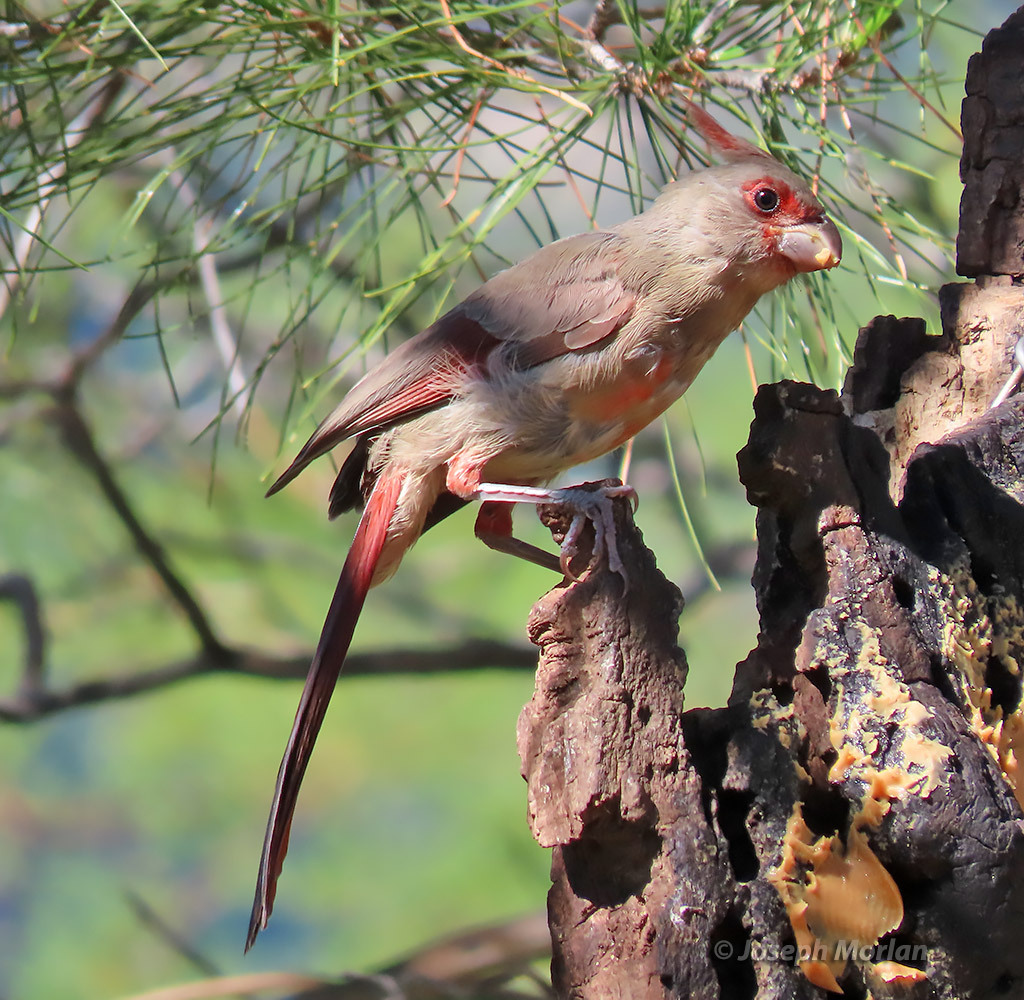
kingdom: Animalia
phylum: Chordata
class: Aves
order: Passeriformes
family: Cardinalidae
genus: Cardinalis
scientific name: Cardinalis sinuatus
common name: Pyrrhuloxia
